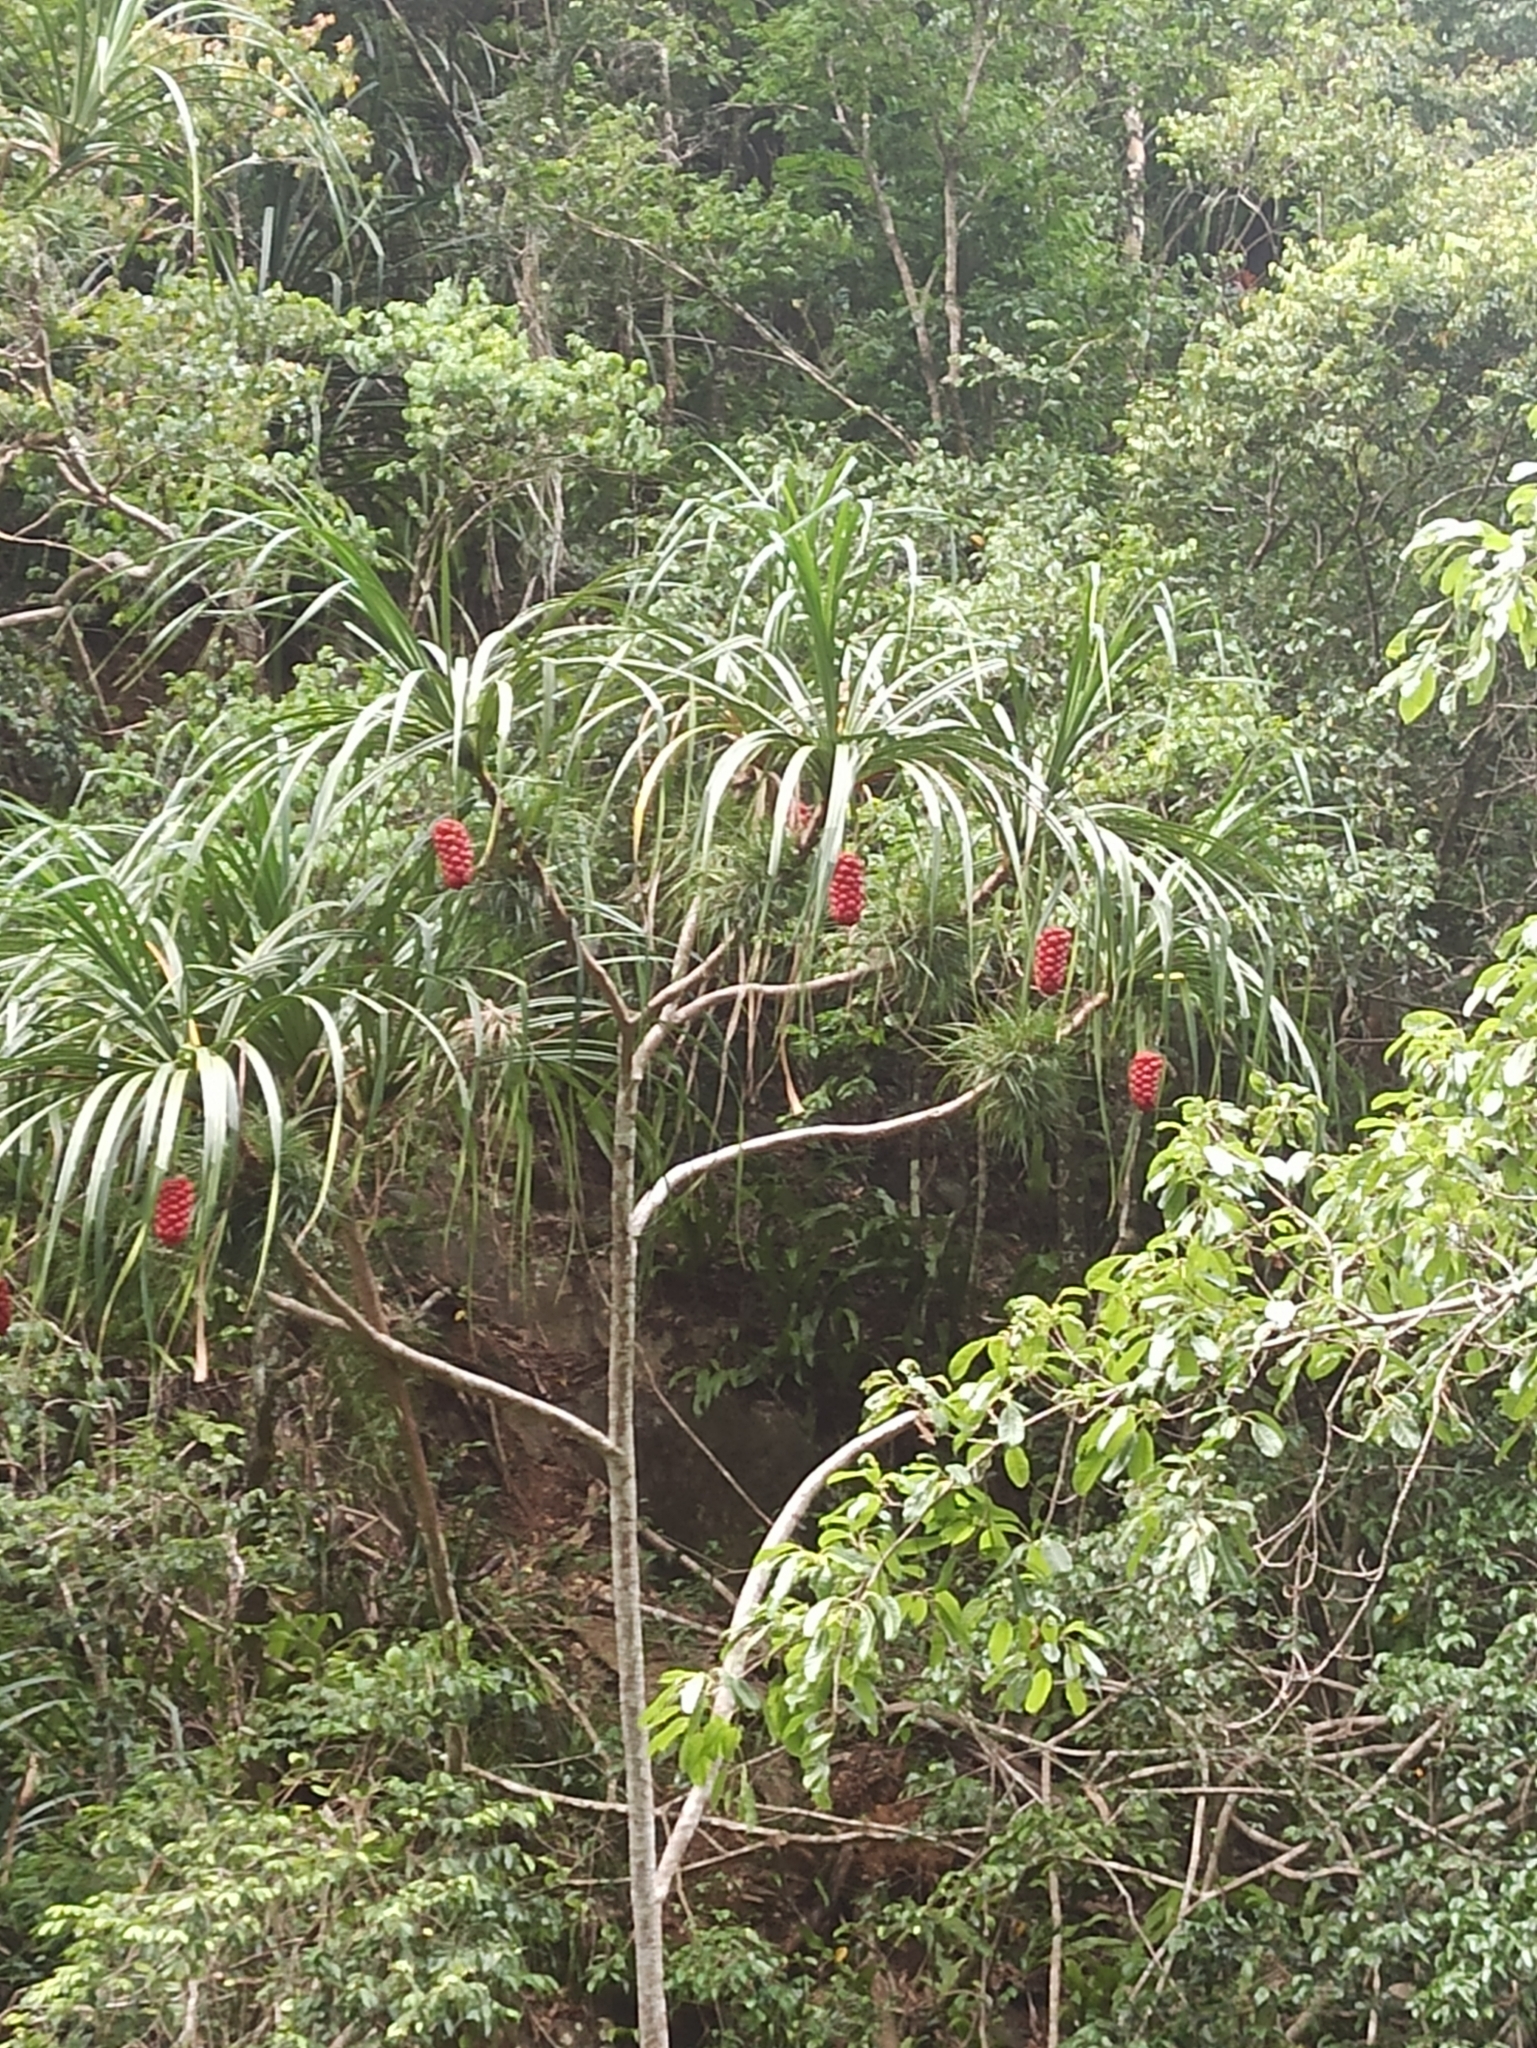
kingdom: Plantae
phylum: Tracheophyta
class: Liliopsida
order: Pandanales
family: Pandanaceae
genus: Pandanus
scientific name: Pandanus gemmifer
